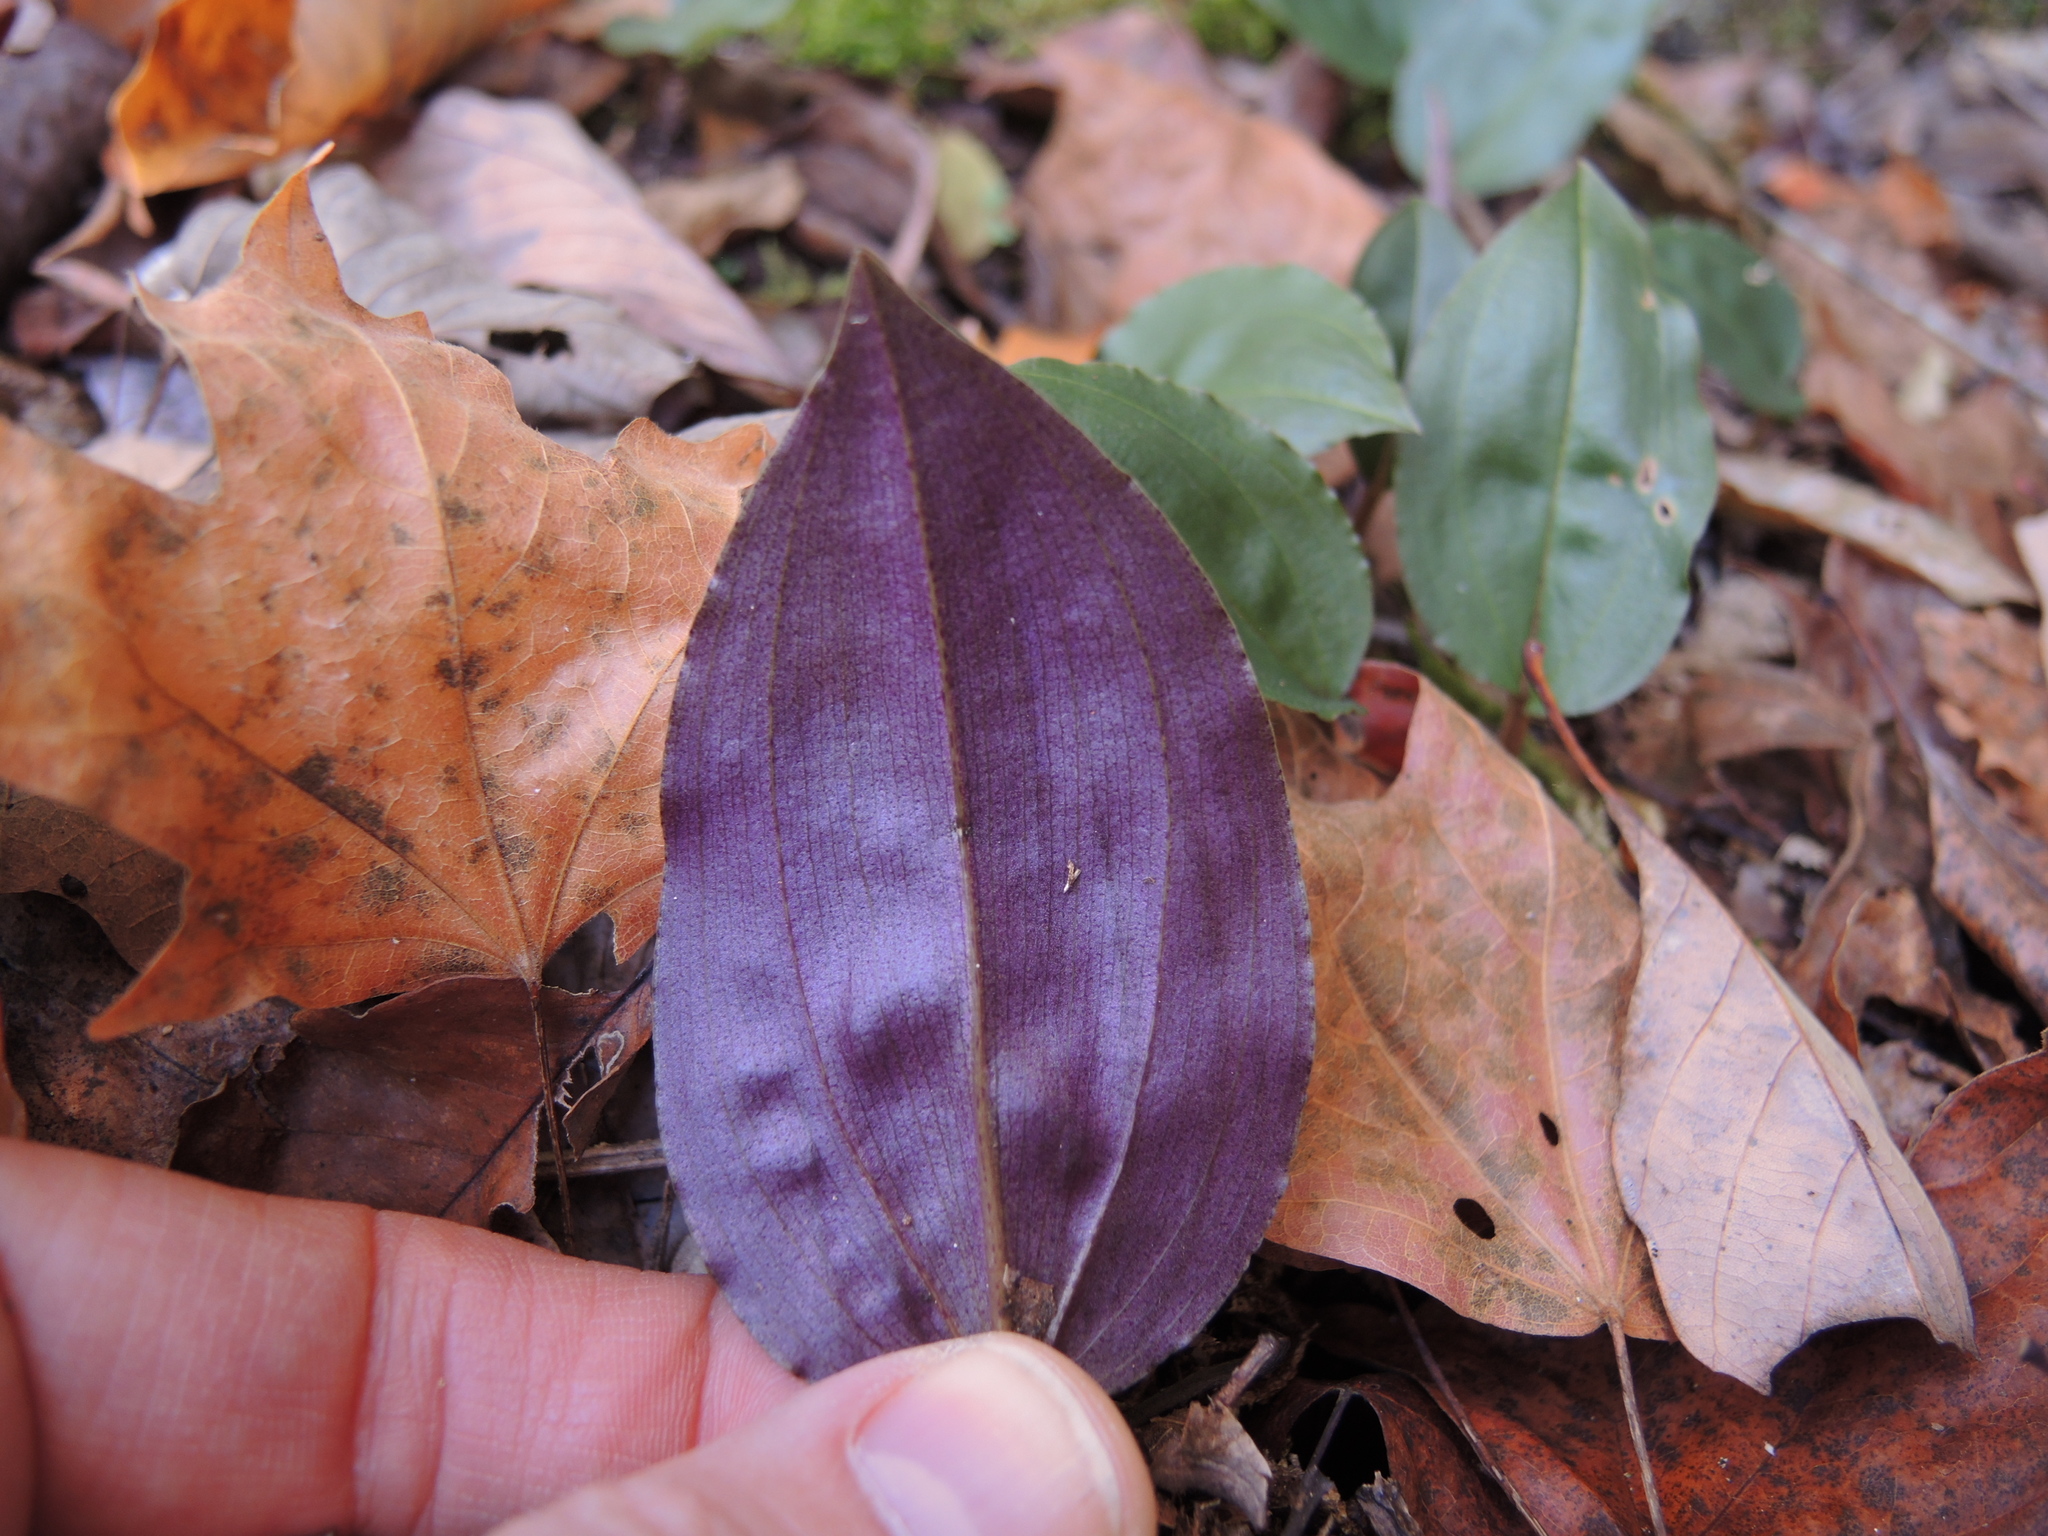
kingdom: Plantae
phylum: Tracheophyta
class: Liliopsida
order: Asparagales
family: Orchidaceae
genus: Tipularia
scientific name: Tipularia discolor
